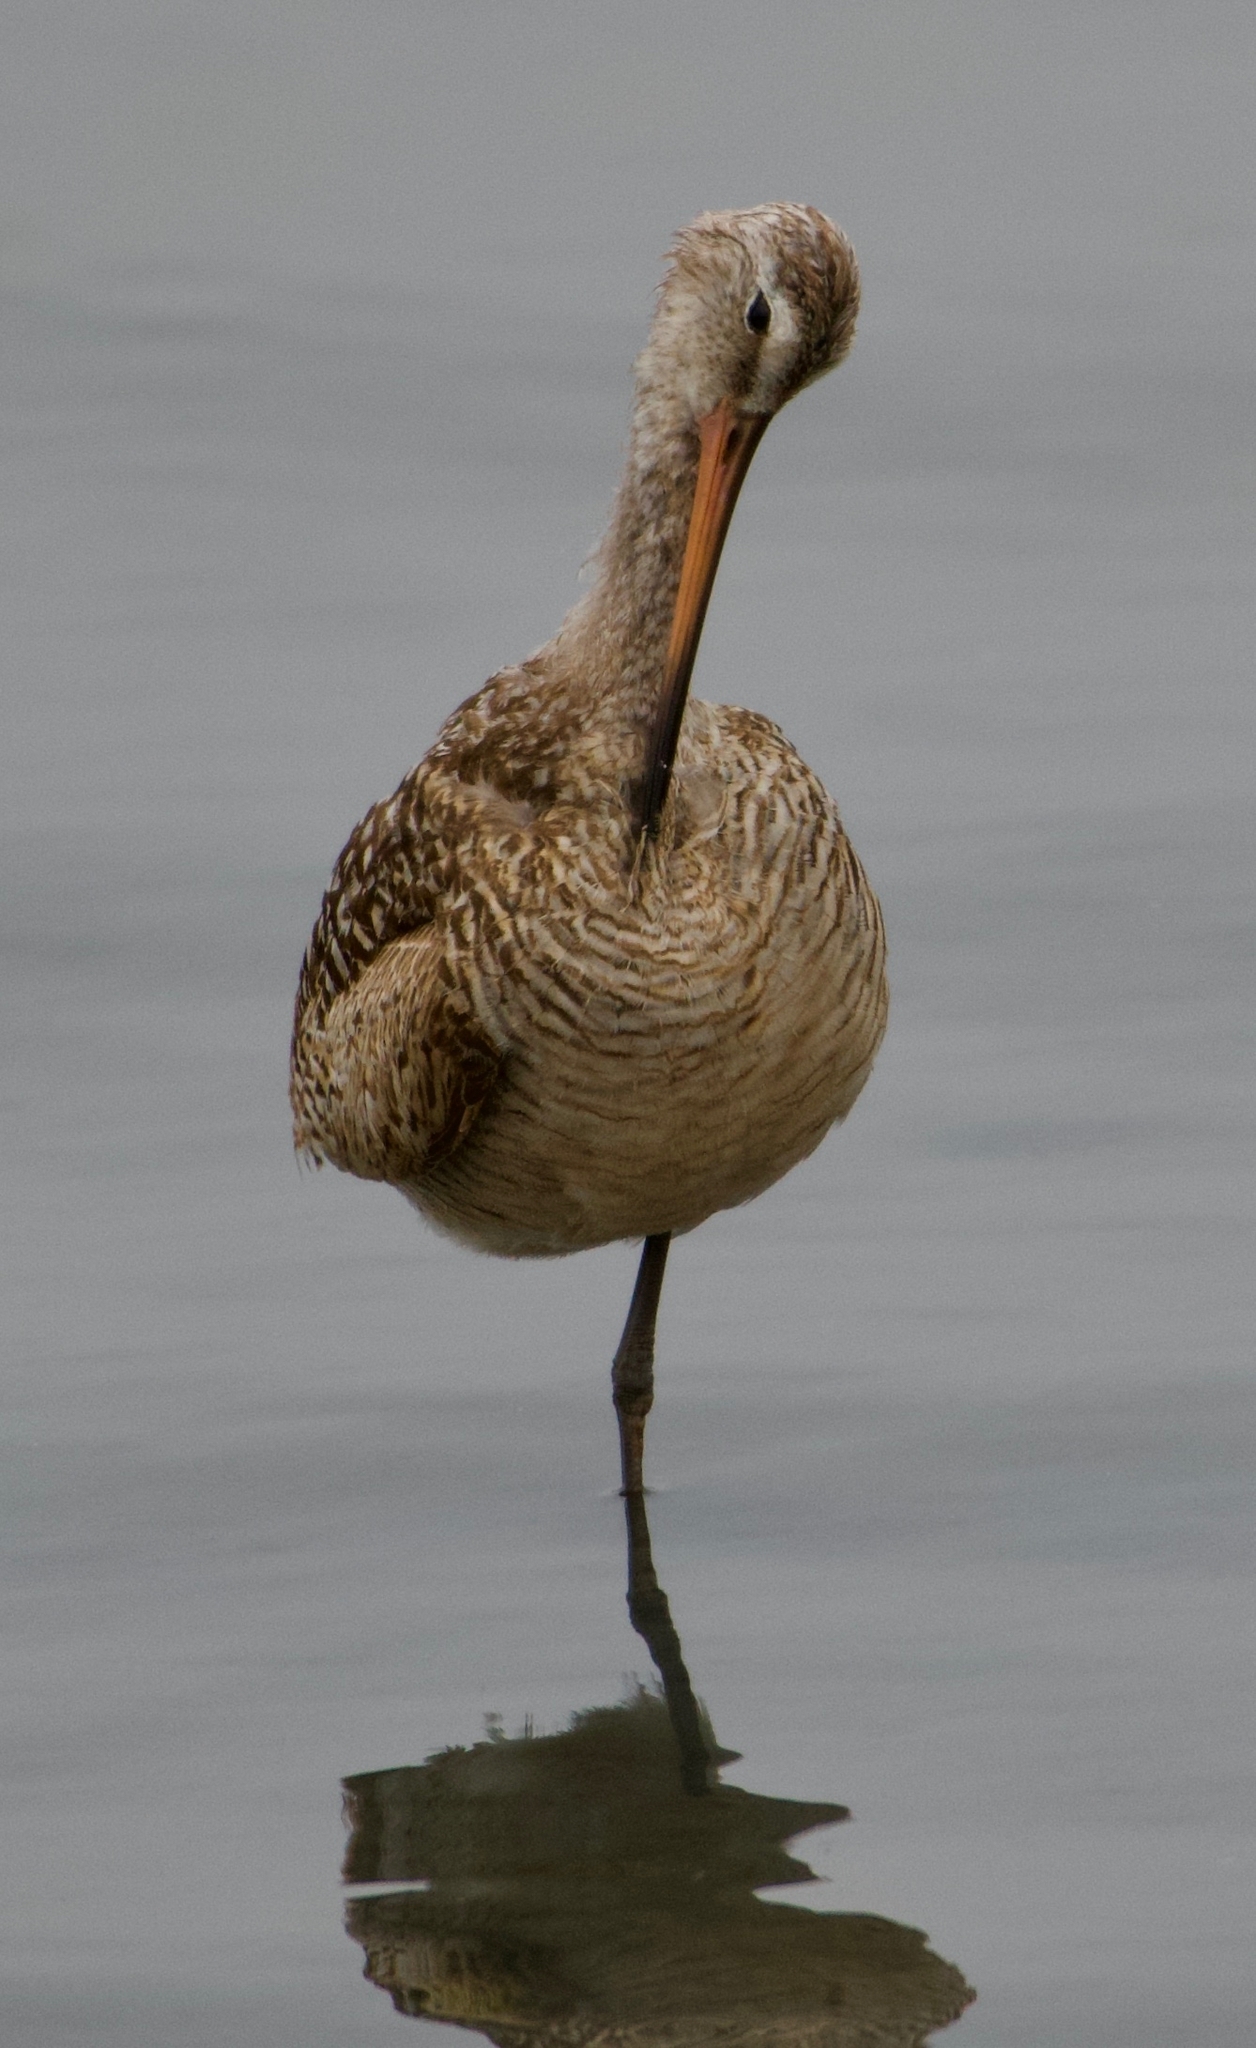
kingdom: Animalia
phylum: Chordata
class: Aves
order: Charadriiformes
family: Scolopacidae
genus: Limosa
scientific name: Limosa fedoa
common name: Marbled godwit
